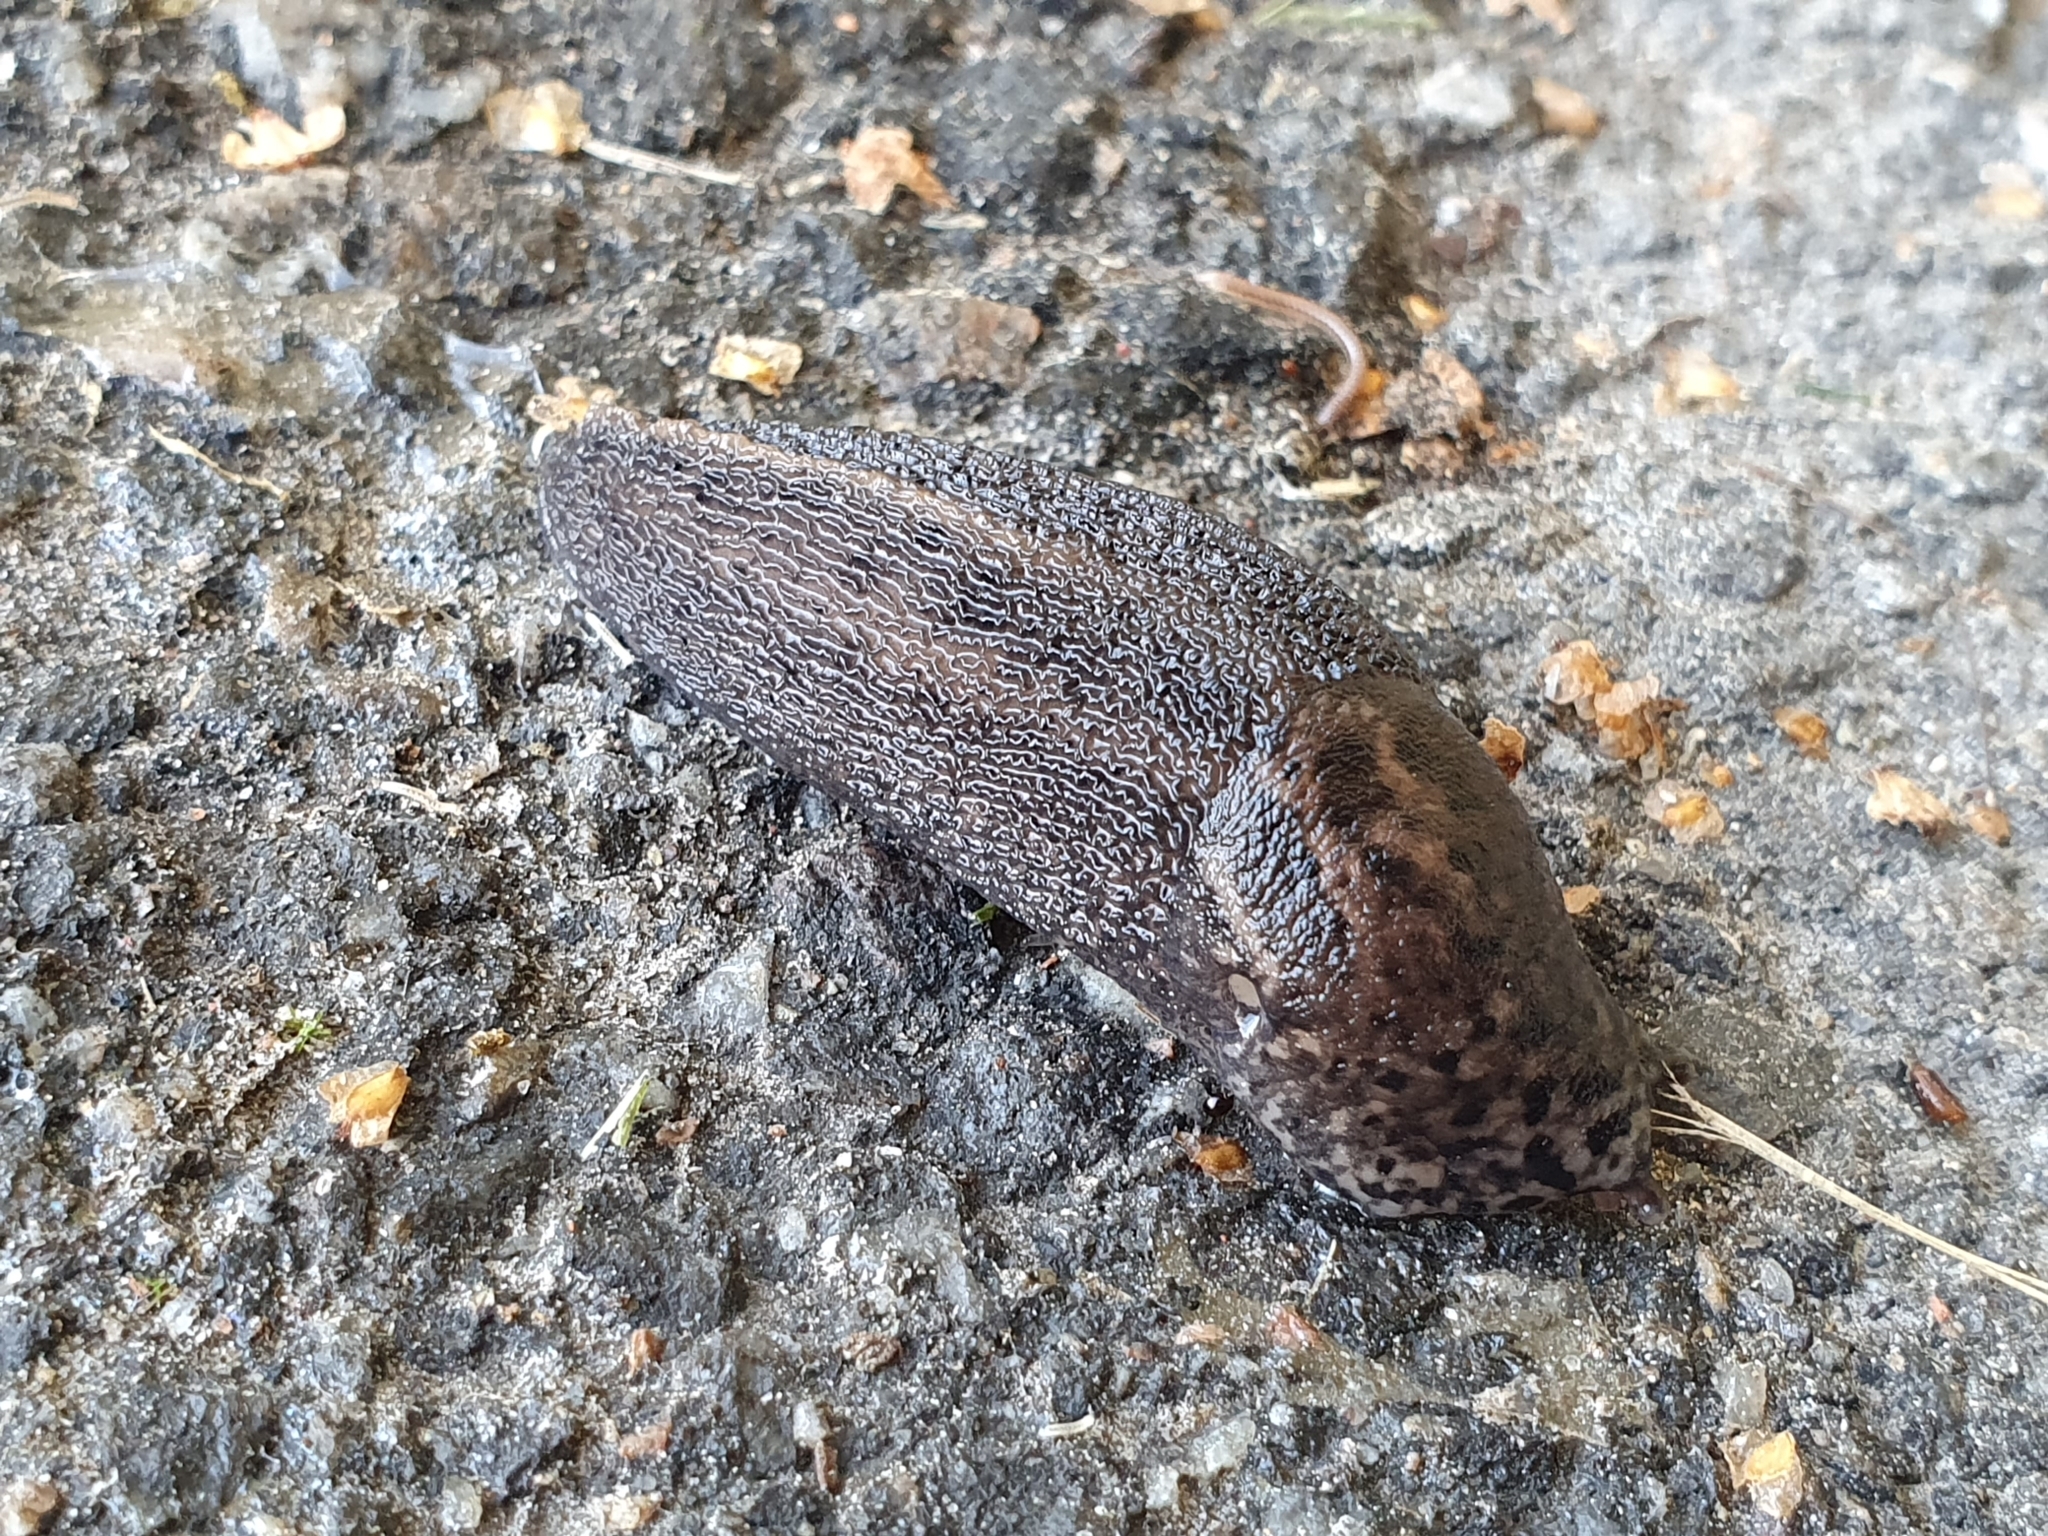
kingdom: Animalia
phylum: Mollusca
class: Gastropoda
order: Stylommatophora
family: Limacidae
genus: Limax
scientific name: Limax maximus
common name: Great grey slug
